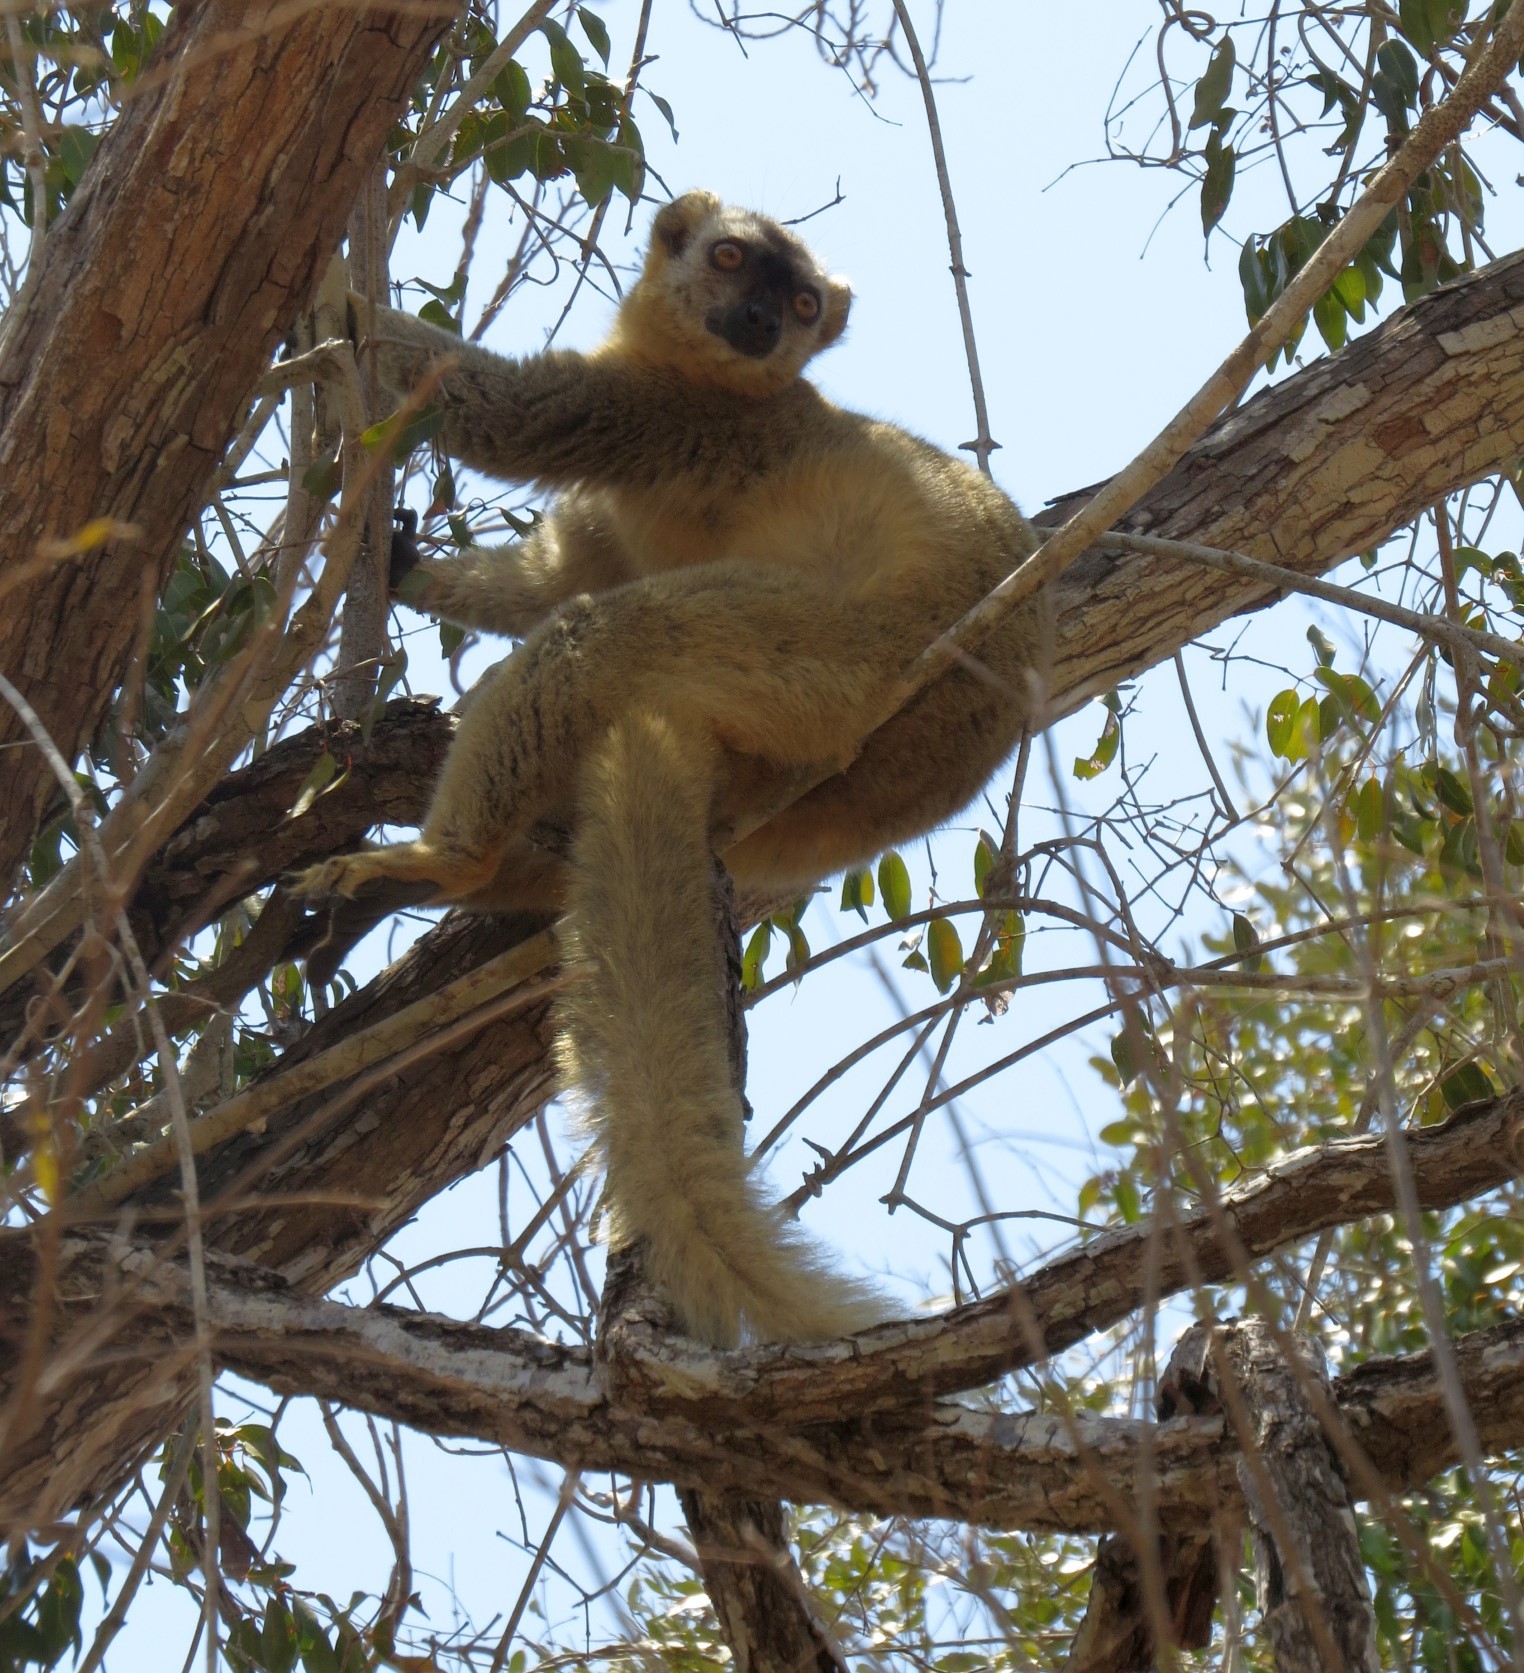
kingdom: Animalia
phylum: Chordata
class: Mammalia
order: Primates
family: Lemuridae
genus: Eulemur
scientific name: Eulemur rufifrons
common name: Red-fronted brown lemur
